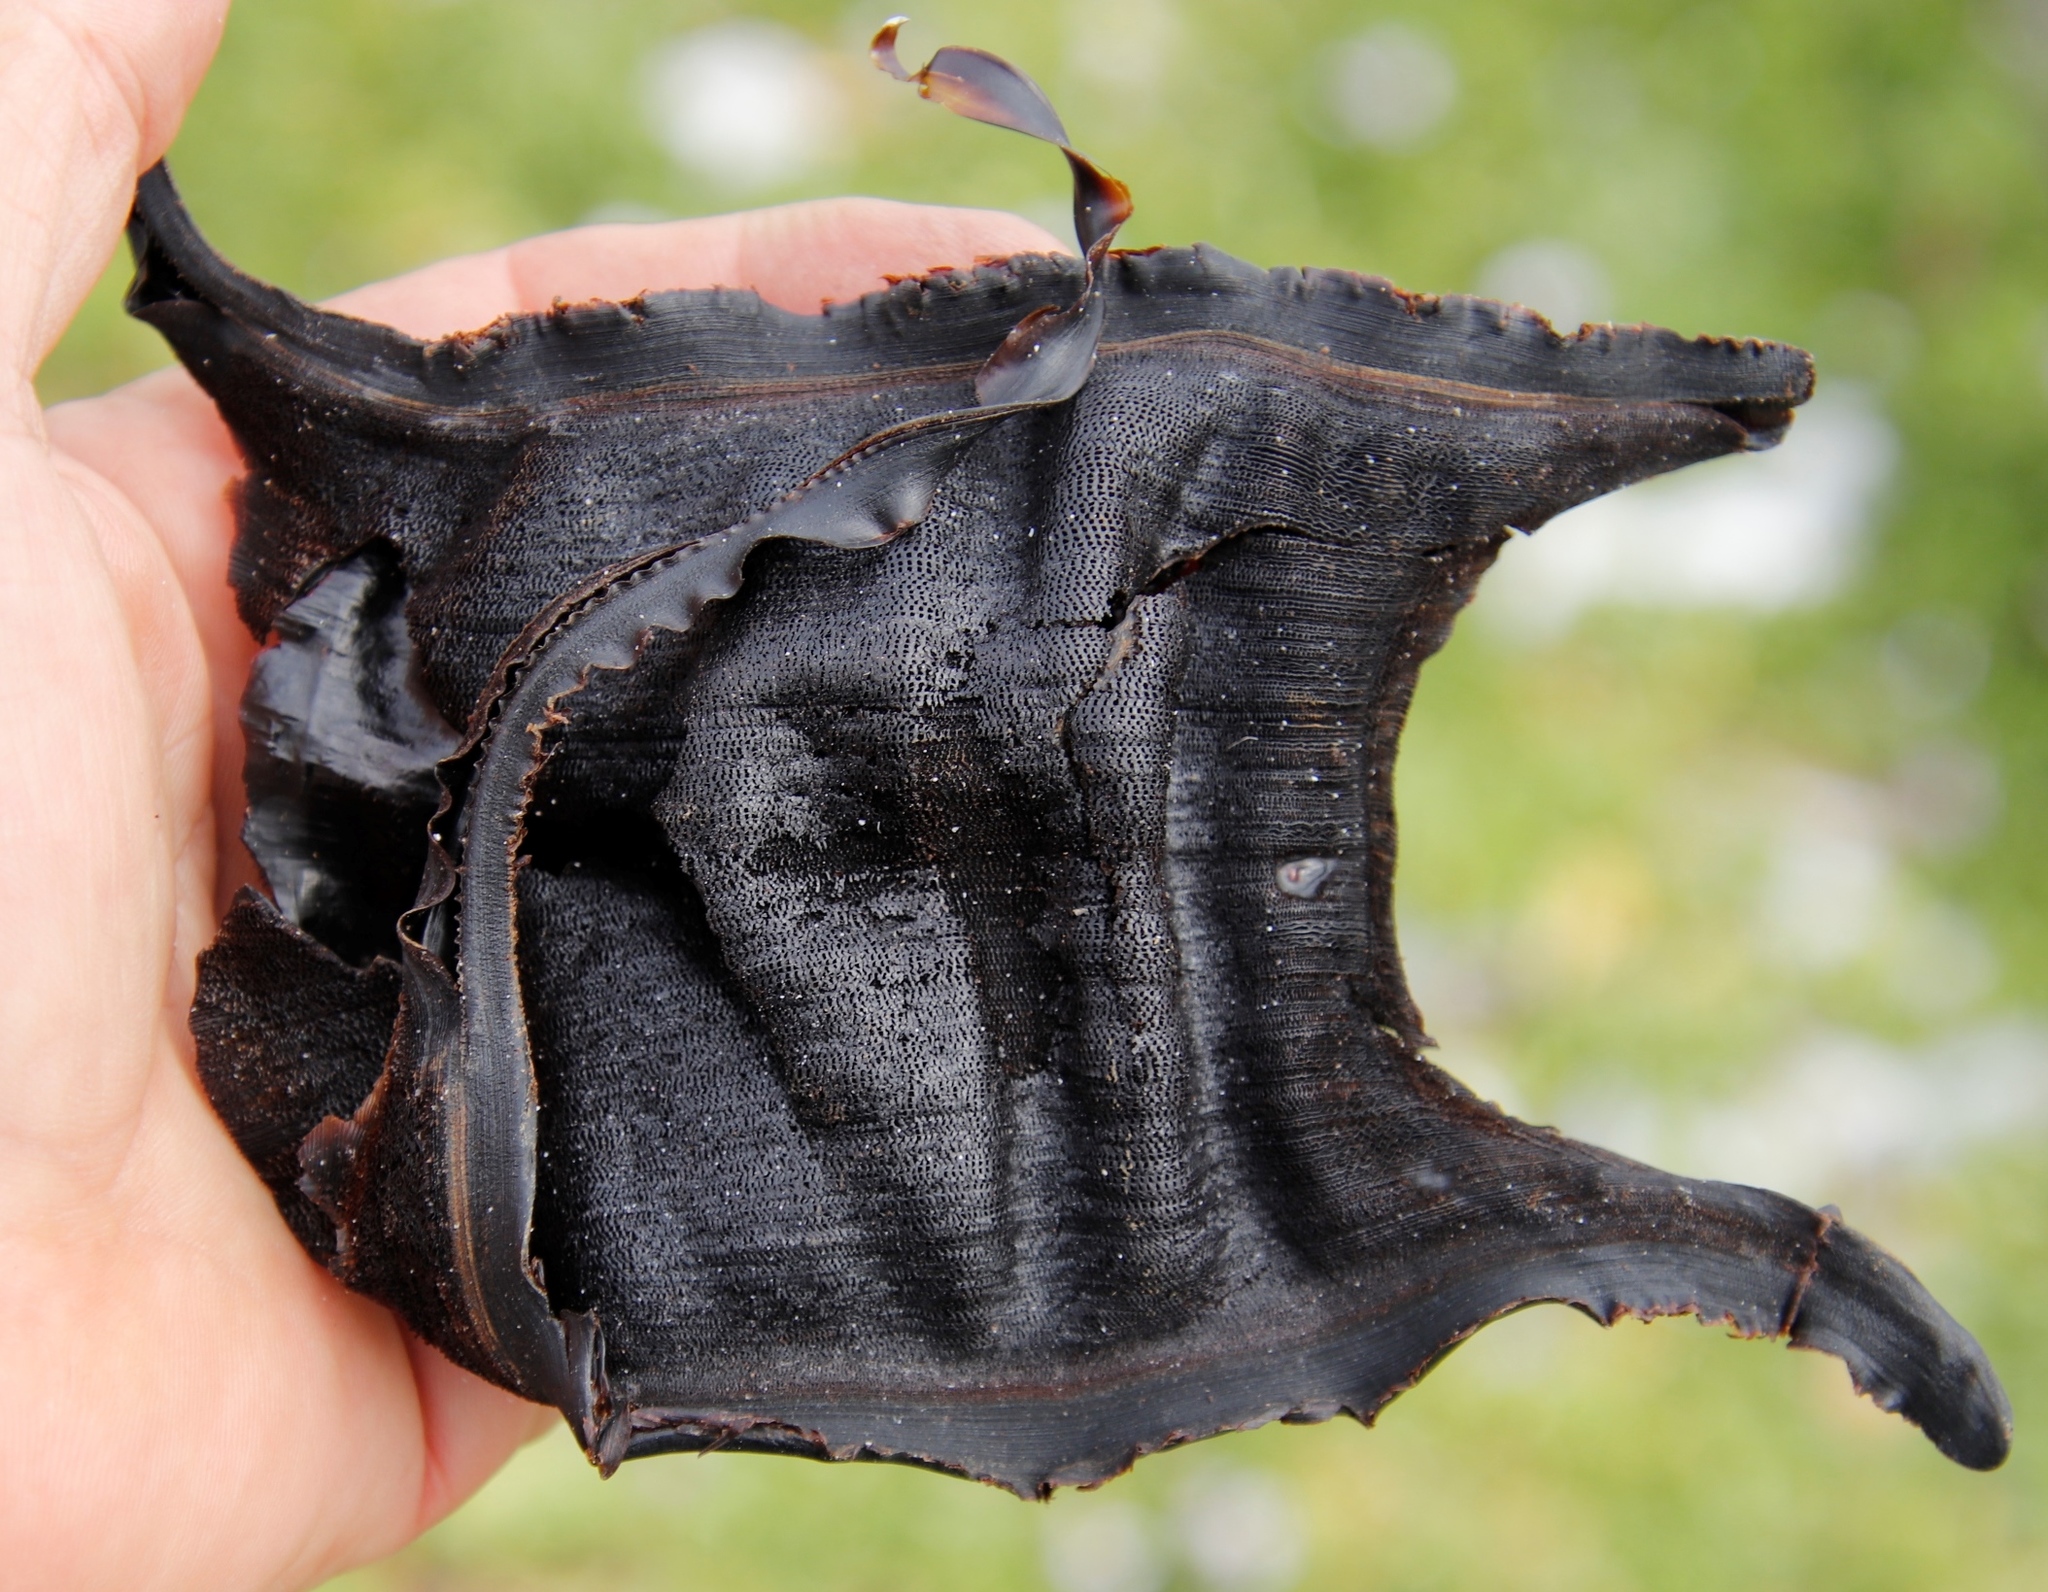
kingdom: Animalia
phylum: Chordata
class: Elasmobranchii
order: Rajiformes
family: Rajidae
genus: Rostroraja
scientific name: Rostroraja alba
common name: White skate
